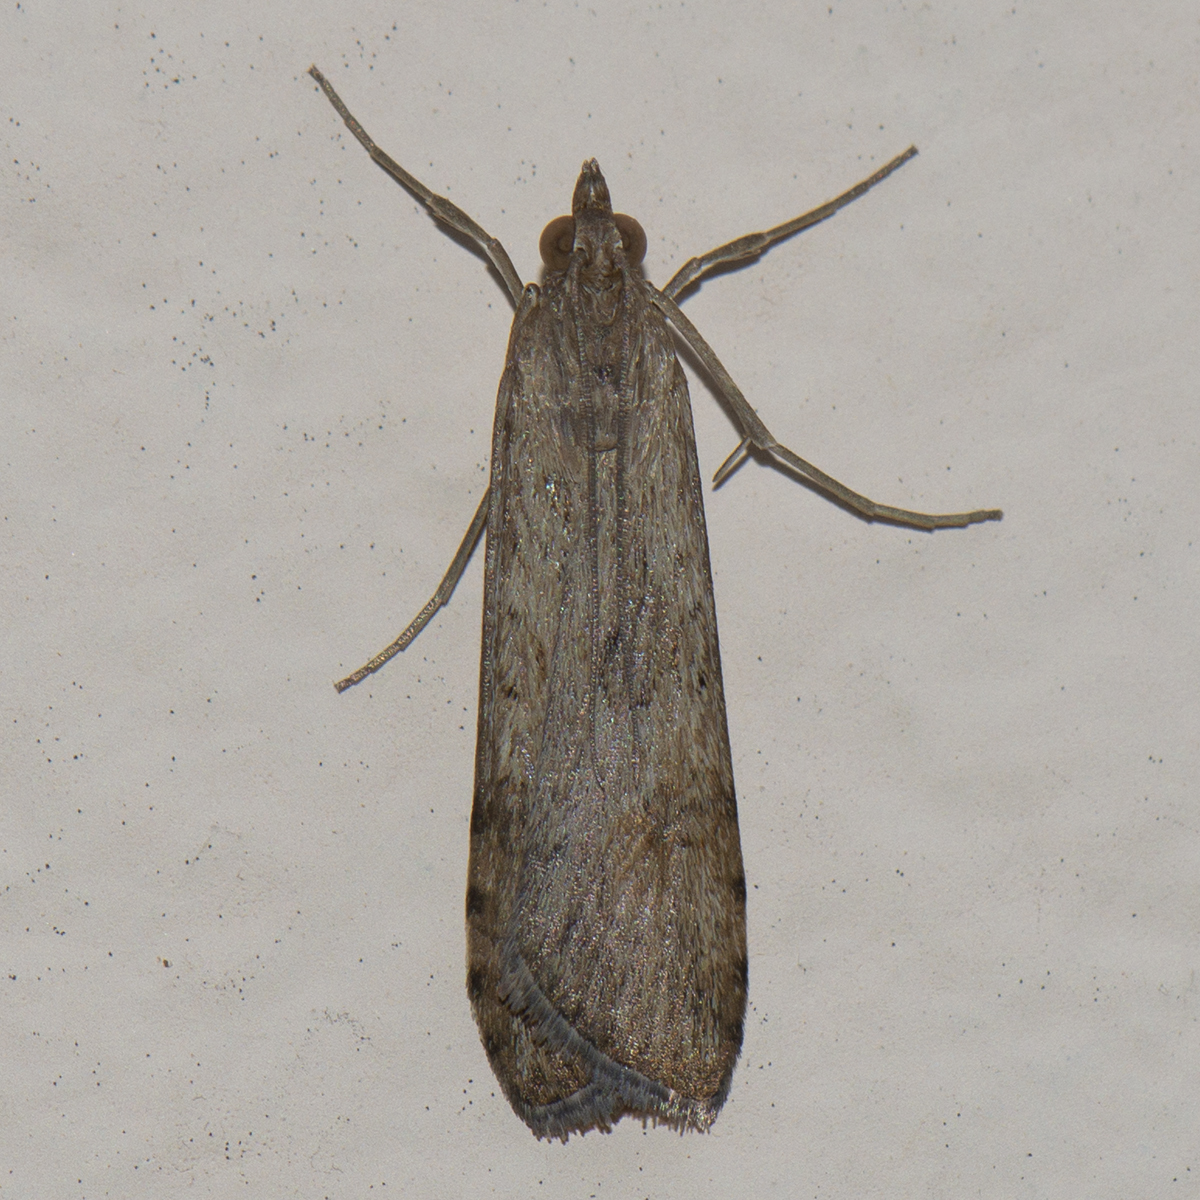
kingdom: Animalia
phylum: Arthropoda
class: Insecta
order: Lepidoptera
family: Crambidae
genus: Nomophila
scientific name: Nomophila noctuella
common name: Rush veneer
